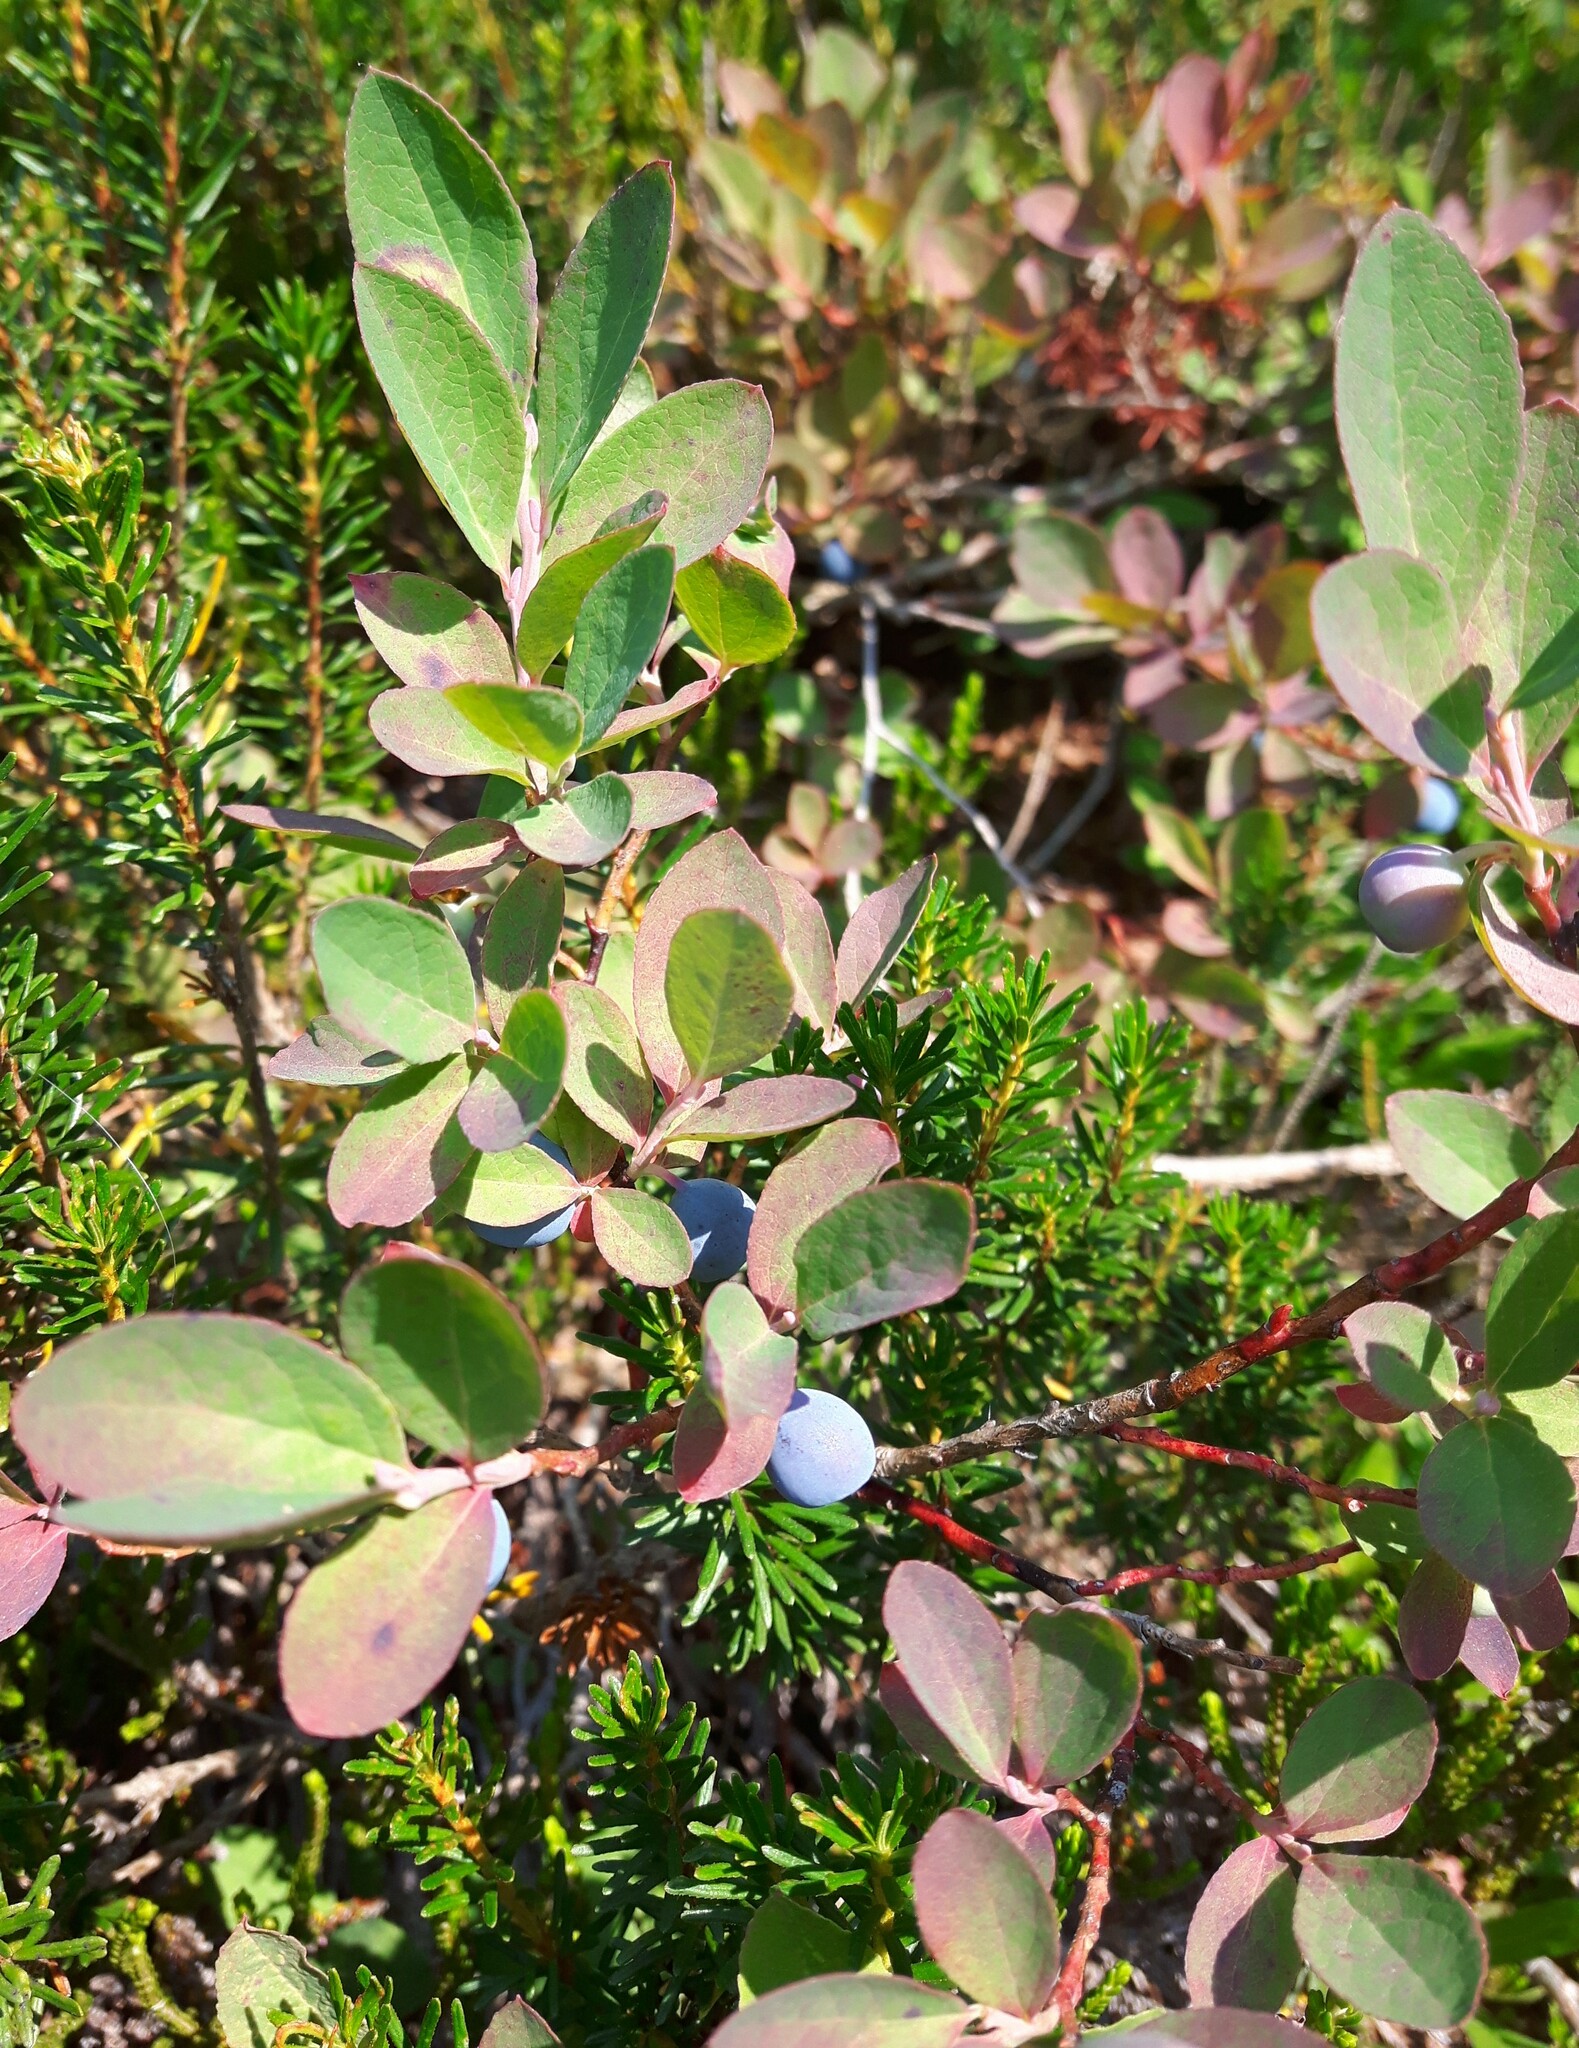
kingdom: Plantae
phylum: Tracheophyta
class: Magnoliopsida
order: Ericales
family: Ericaceae
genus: Vaccinium
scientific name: Vaccinium deliciosum
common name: Cascade bilberry
